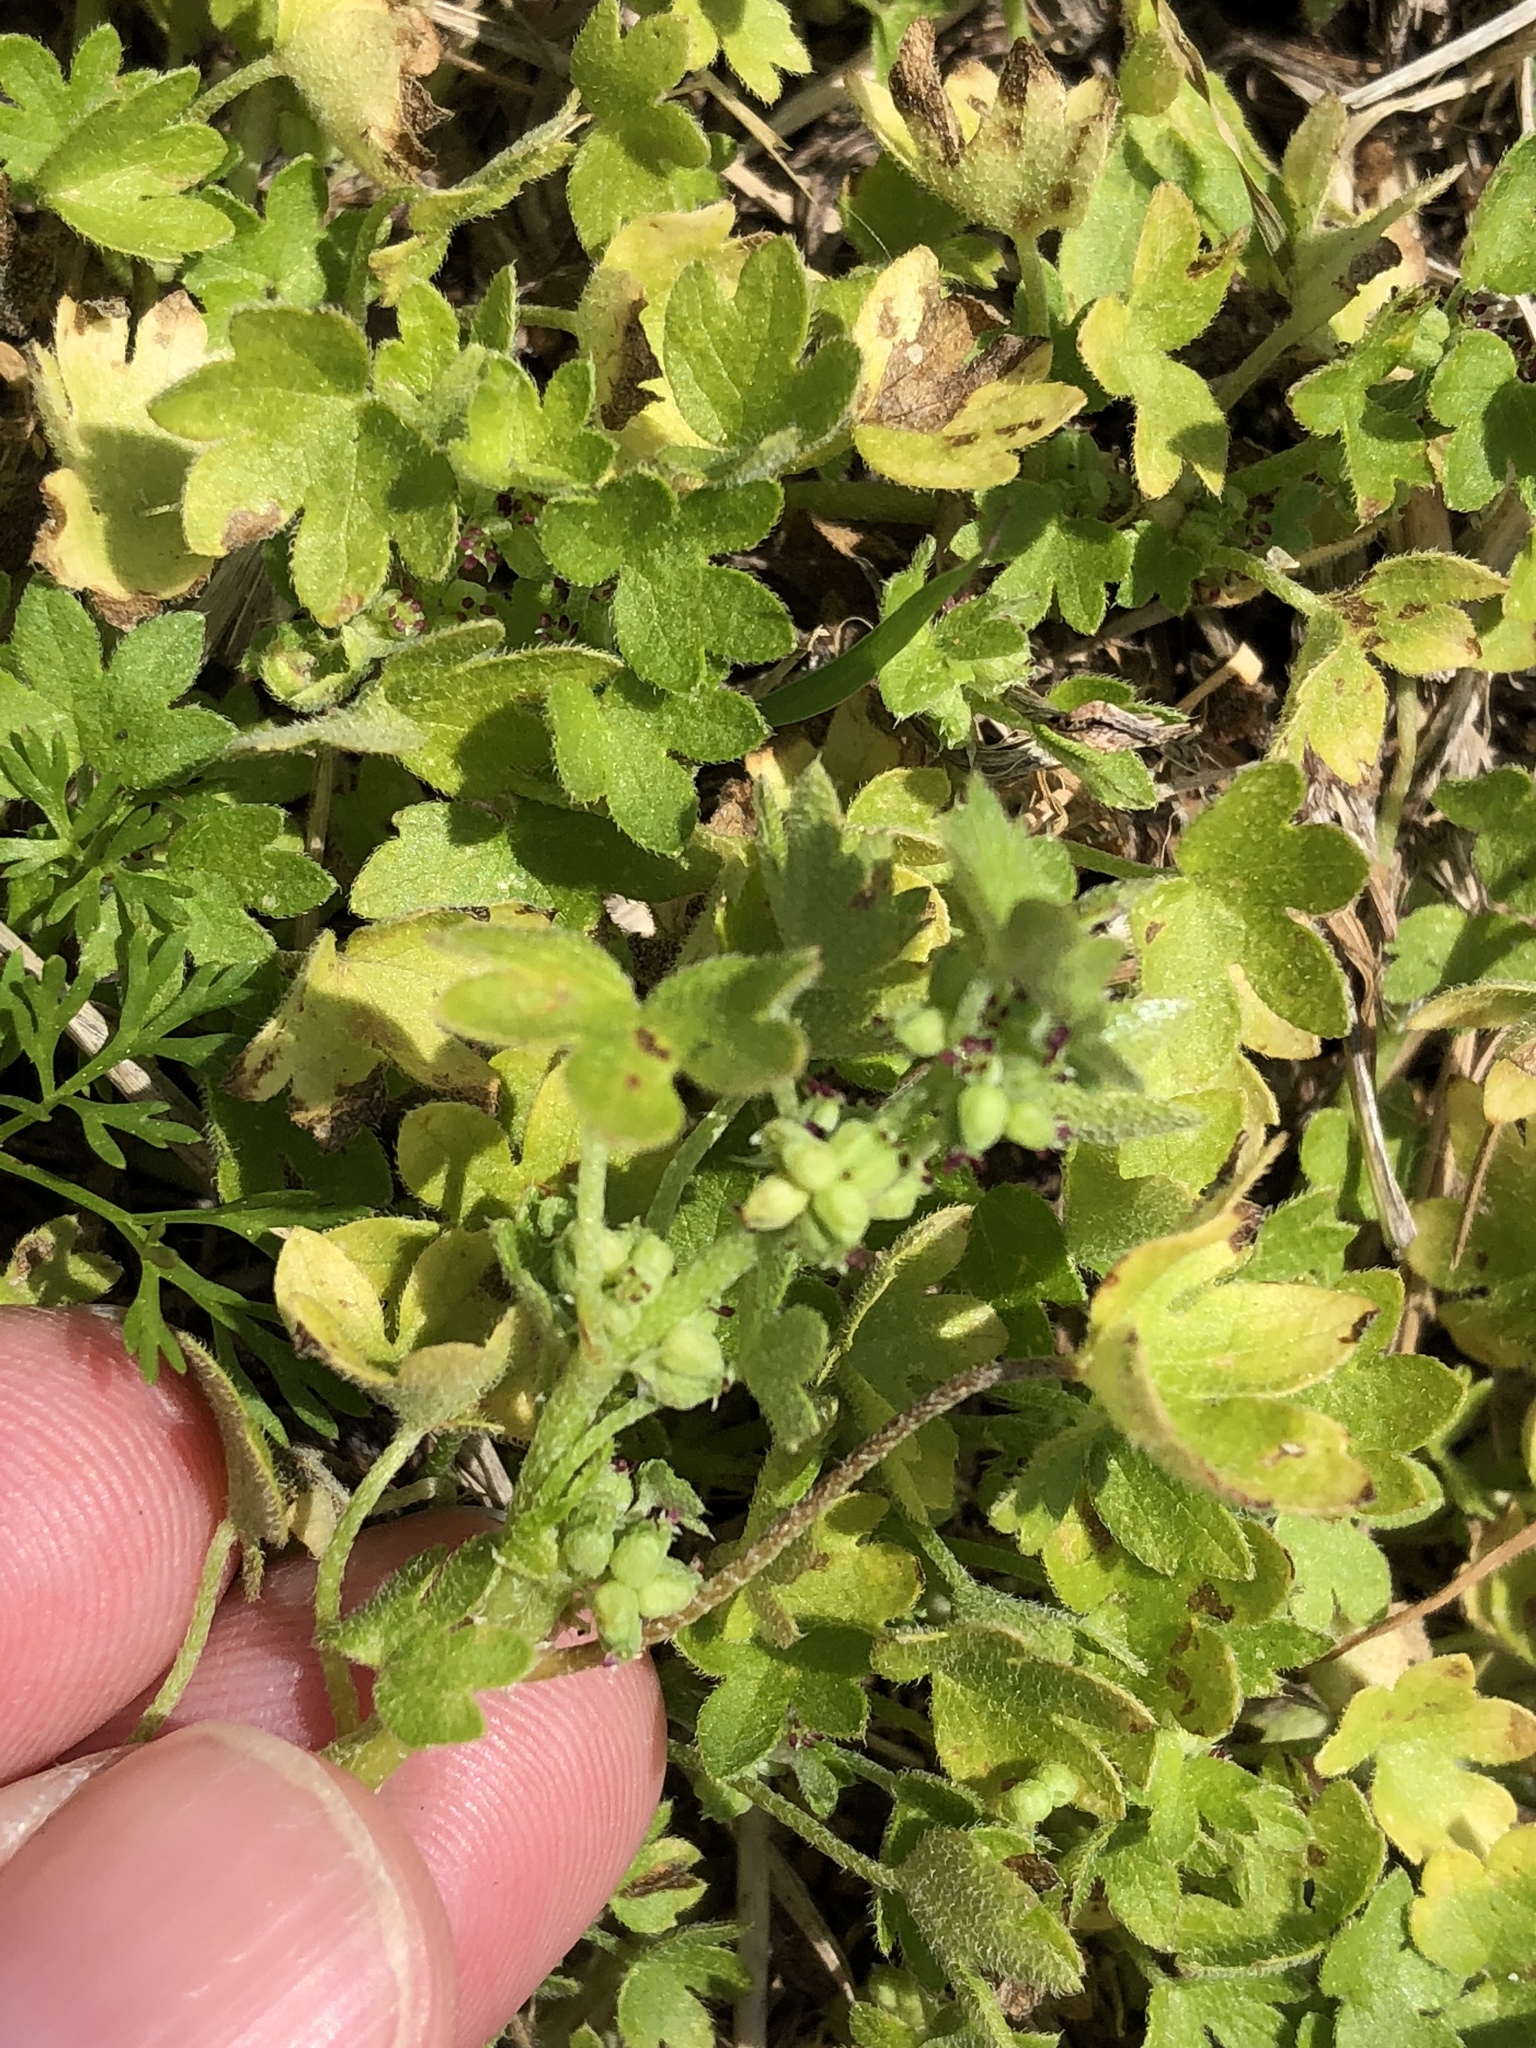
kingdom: Plantae
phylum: Tracheophyta
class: Magnoliopsida
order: Apiales
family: Apiaceae
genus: Bowlesia
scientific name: Bowlesia incana
